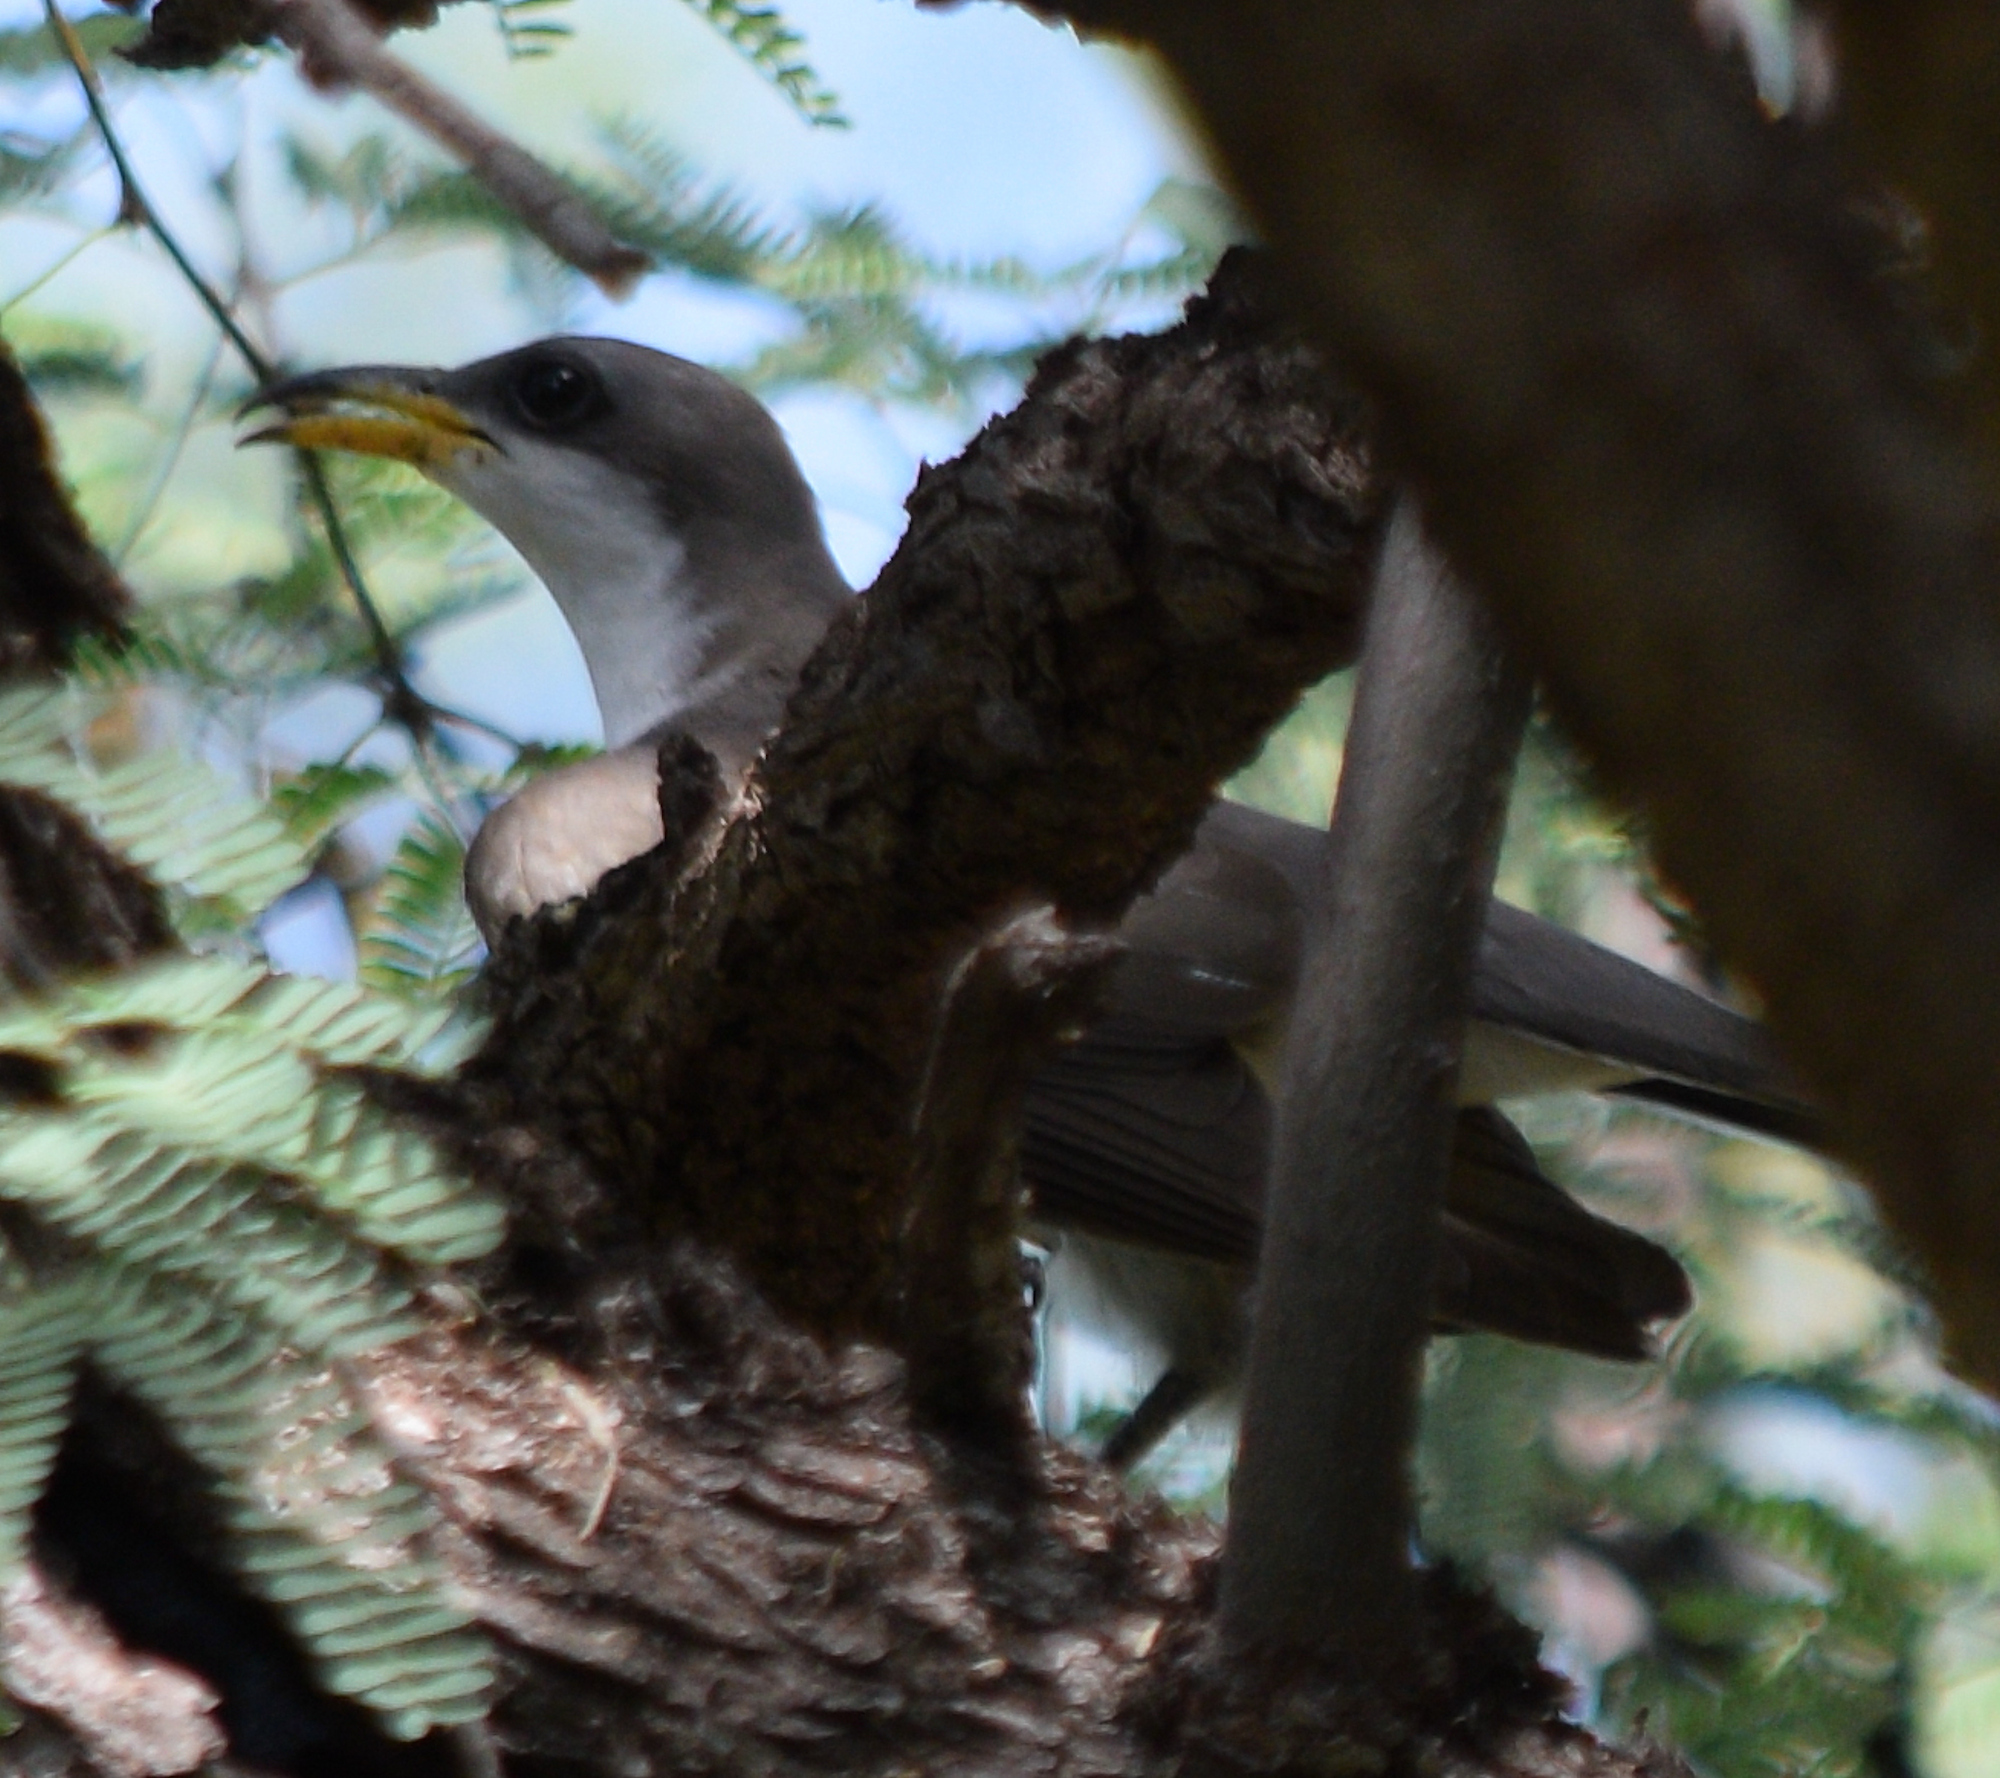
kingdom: Animalia
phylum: Chordata
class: Aves
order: Cuculiformes
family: Cuculidae
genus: Coccyzus
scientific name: Coccyzus americanus
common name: Yellow-billed cuckoo
